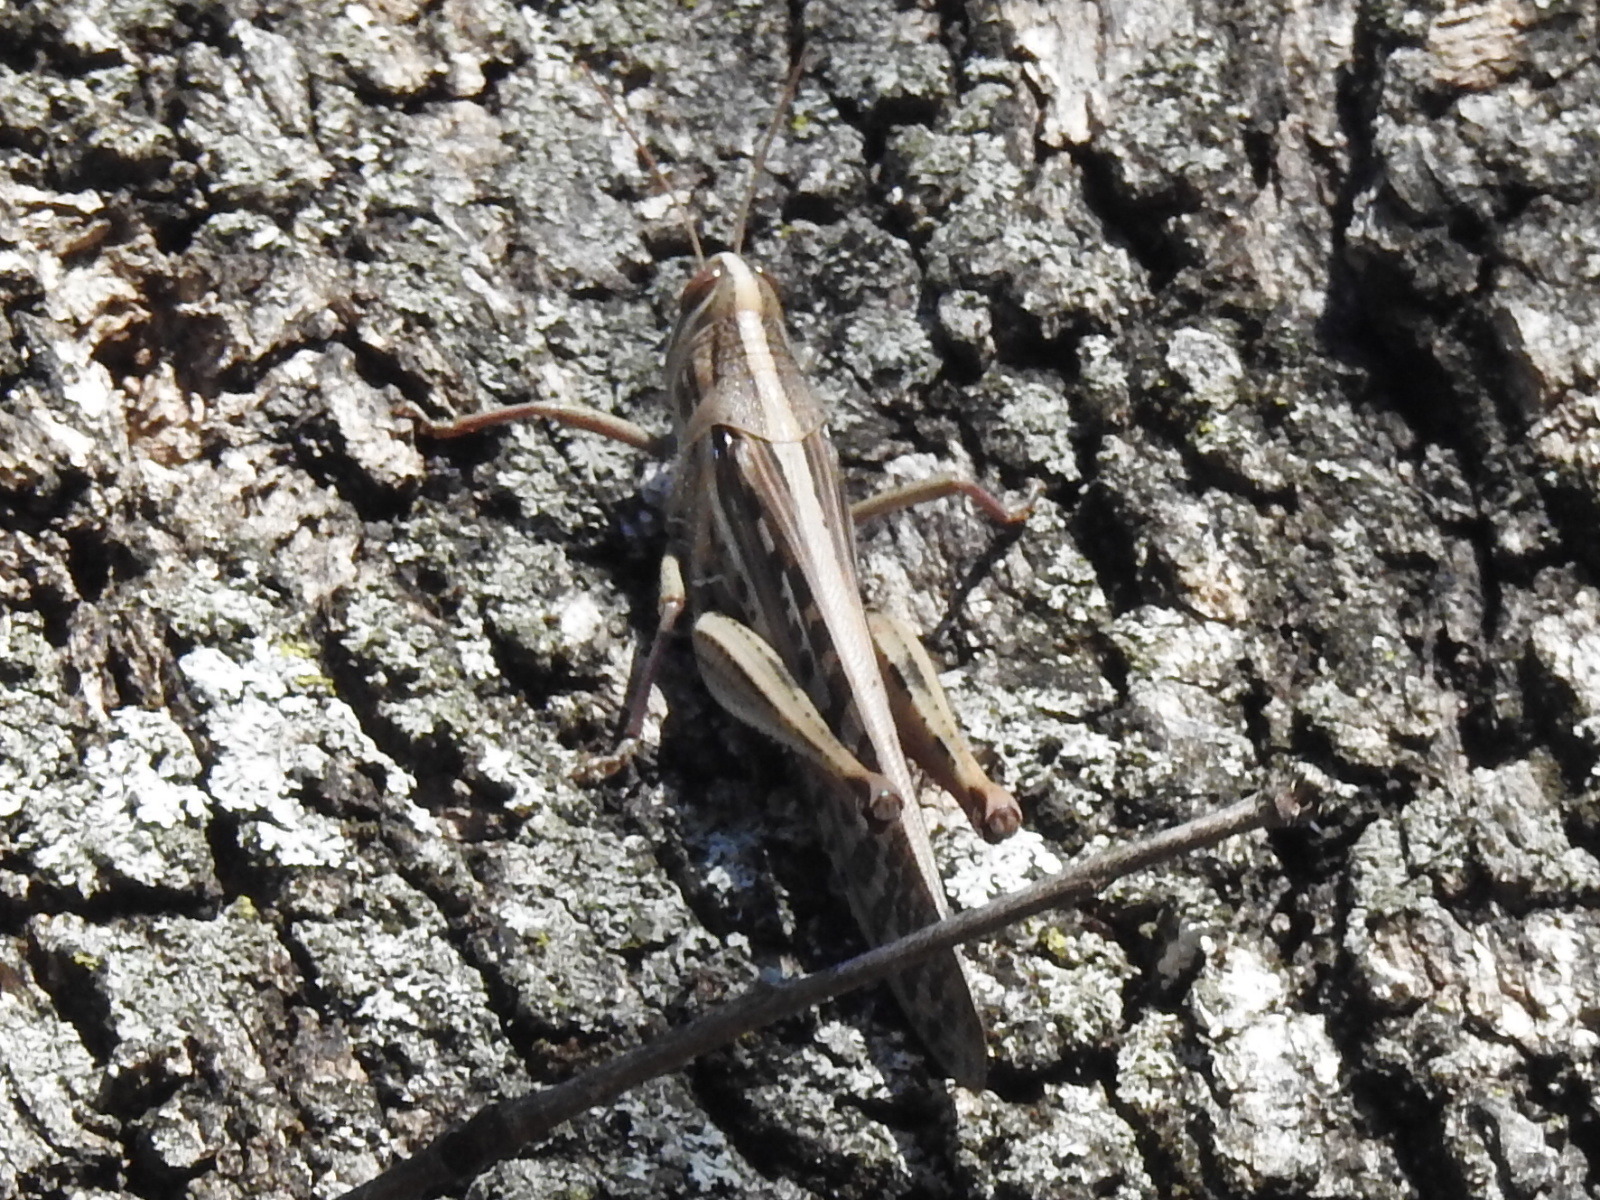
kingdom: Animalia
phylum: Arthropoda
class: Insecta
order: Orthoptera
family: Acrididae
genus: Schistocerca
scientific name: Schistocerca americana
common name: American bird locust
